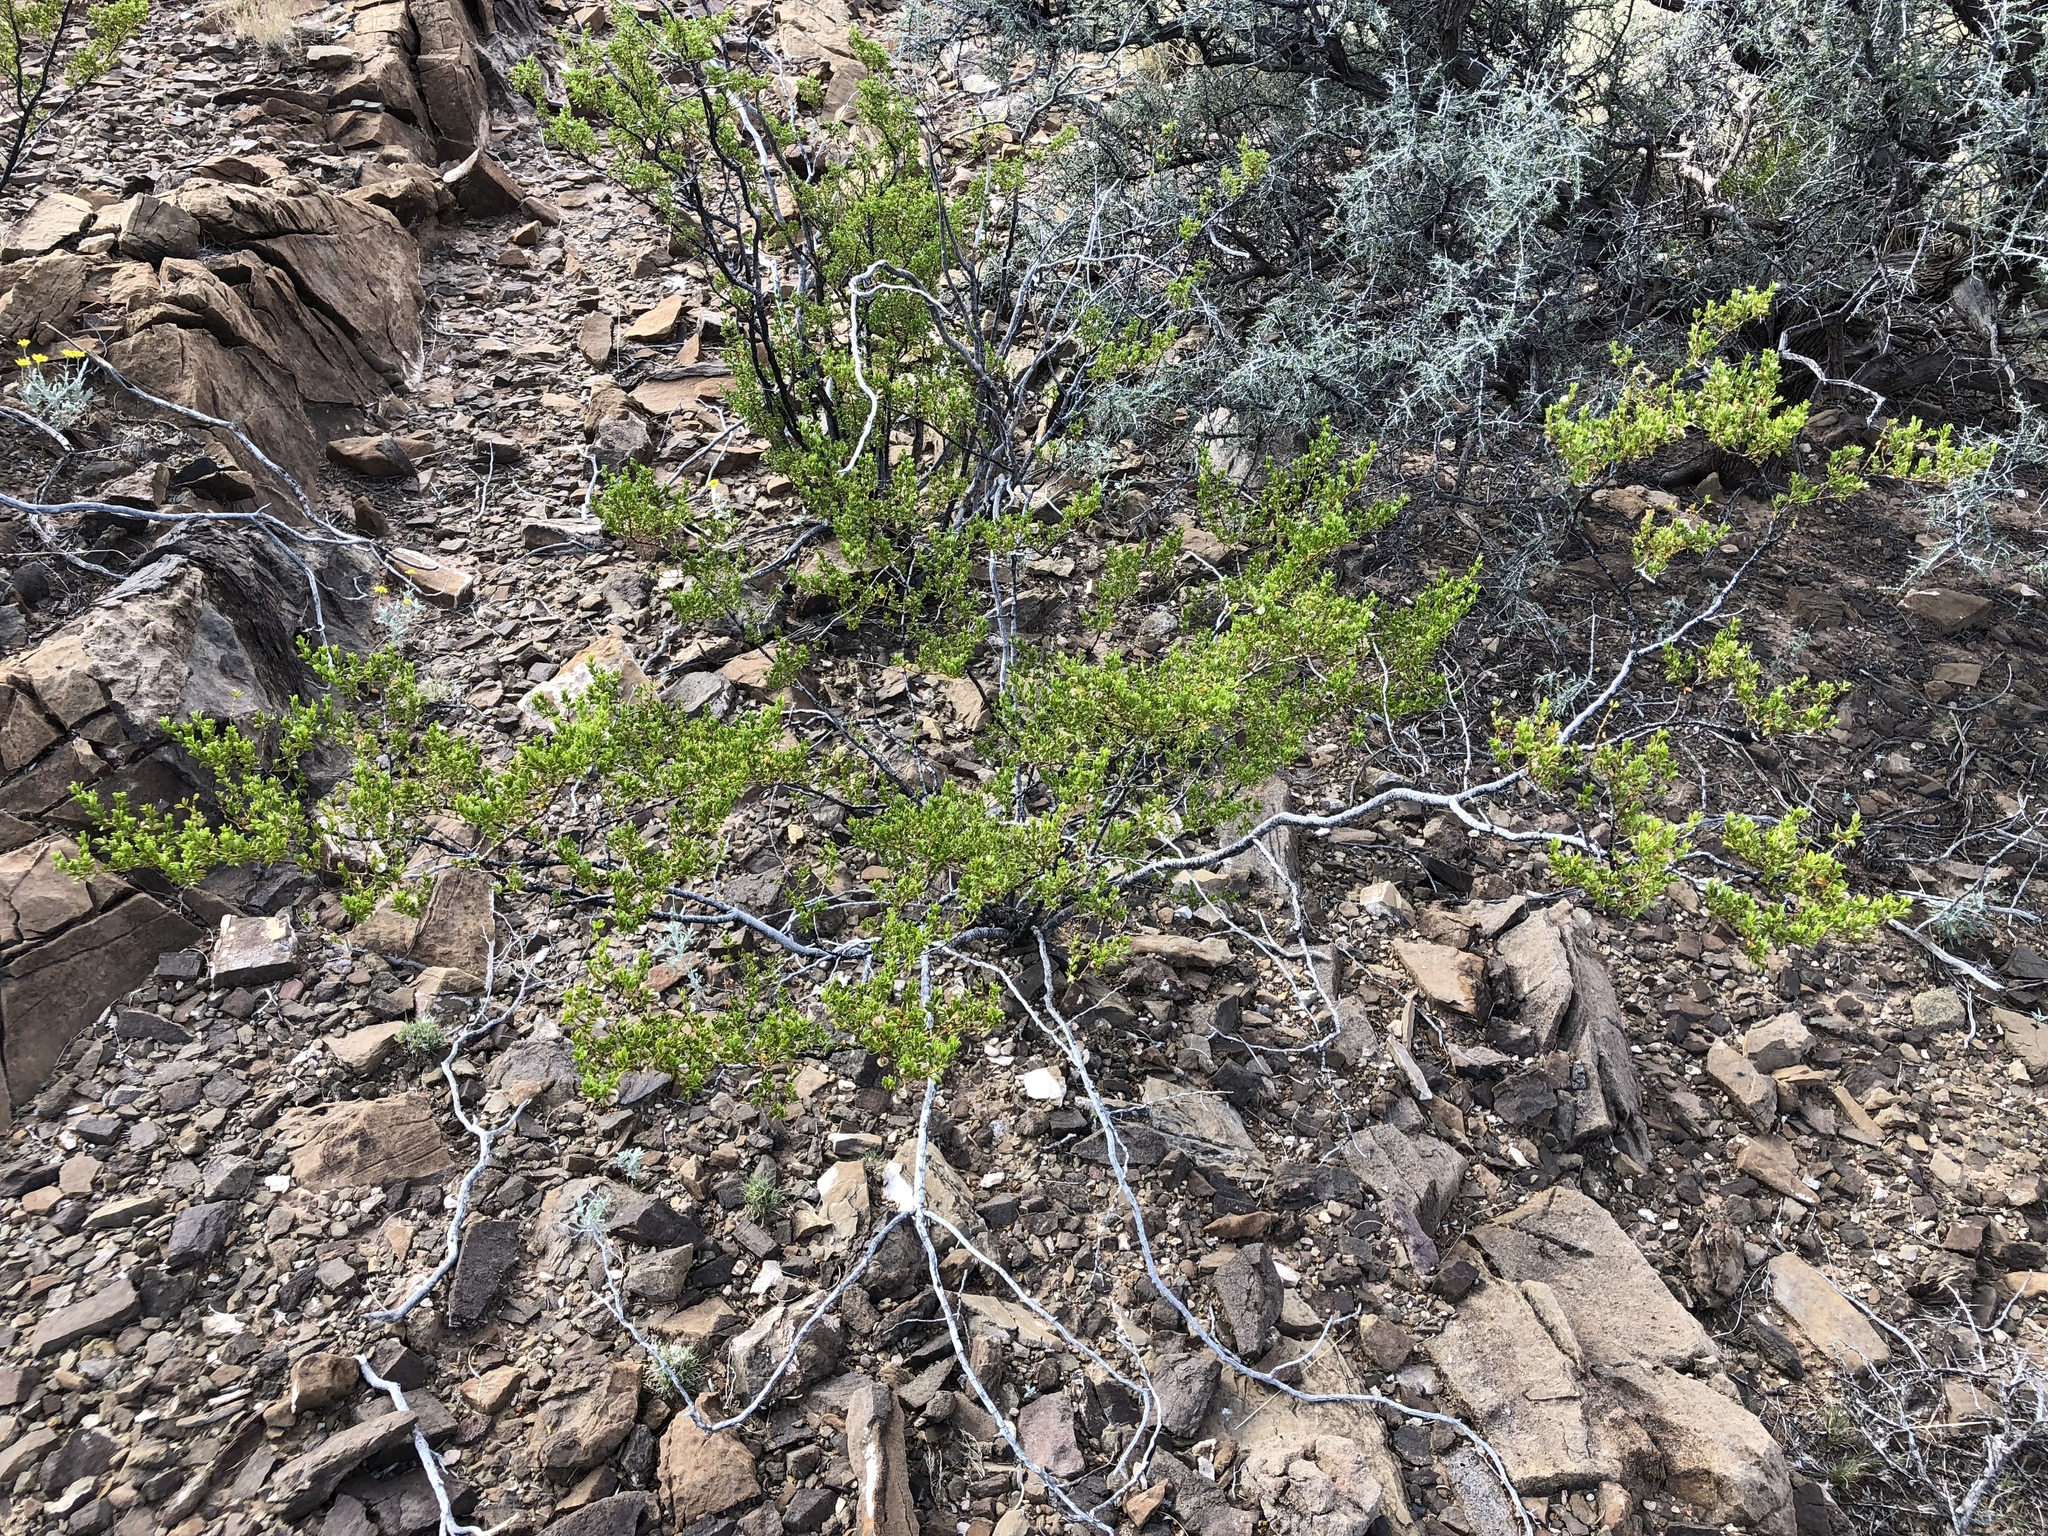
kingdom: Plantae
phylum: Tracheophyta
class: Magnoliopsida
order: Zygophyllales
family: Zygophyllaceae
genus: Larrea
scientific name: Larrea tridentata
